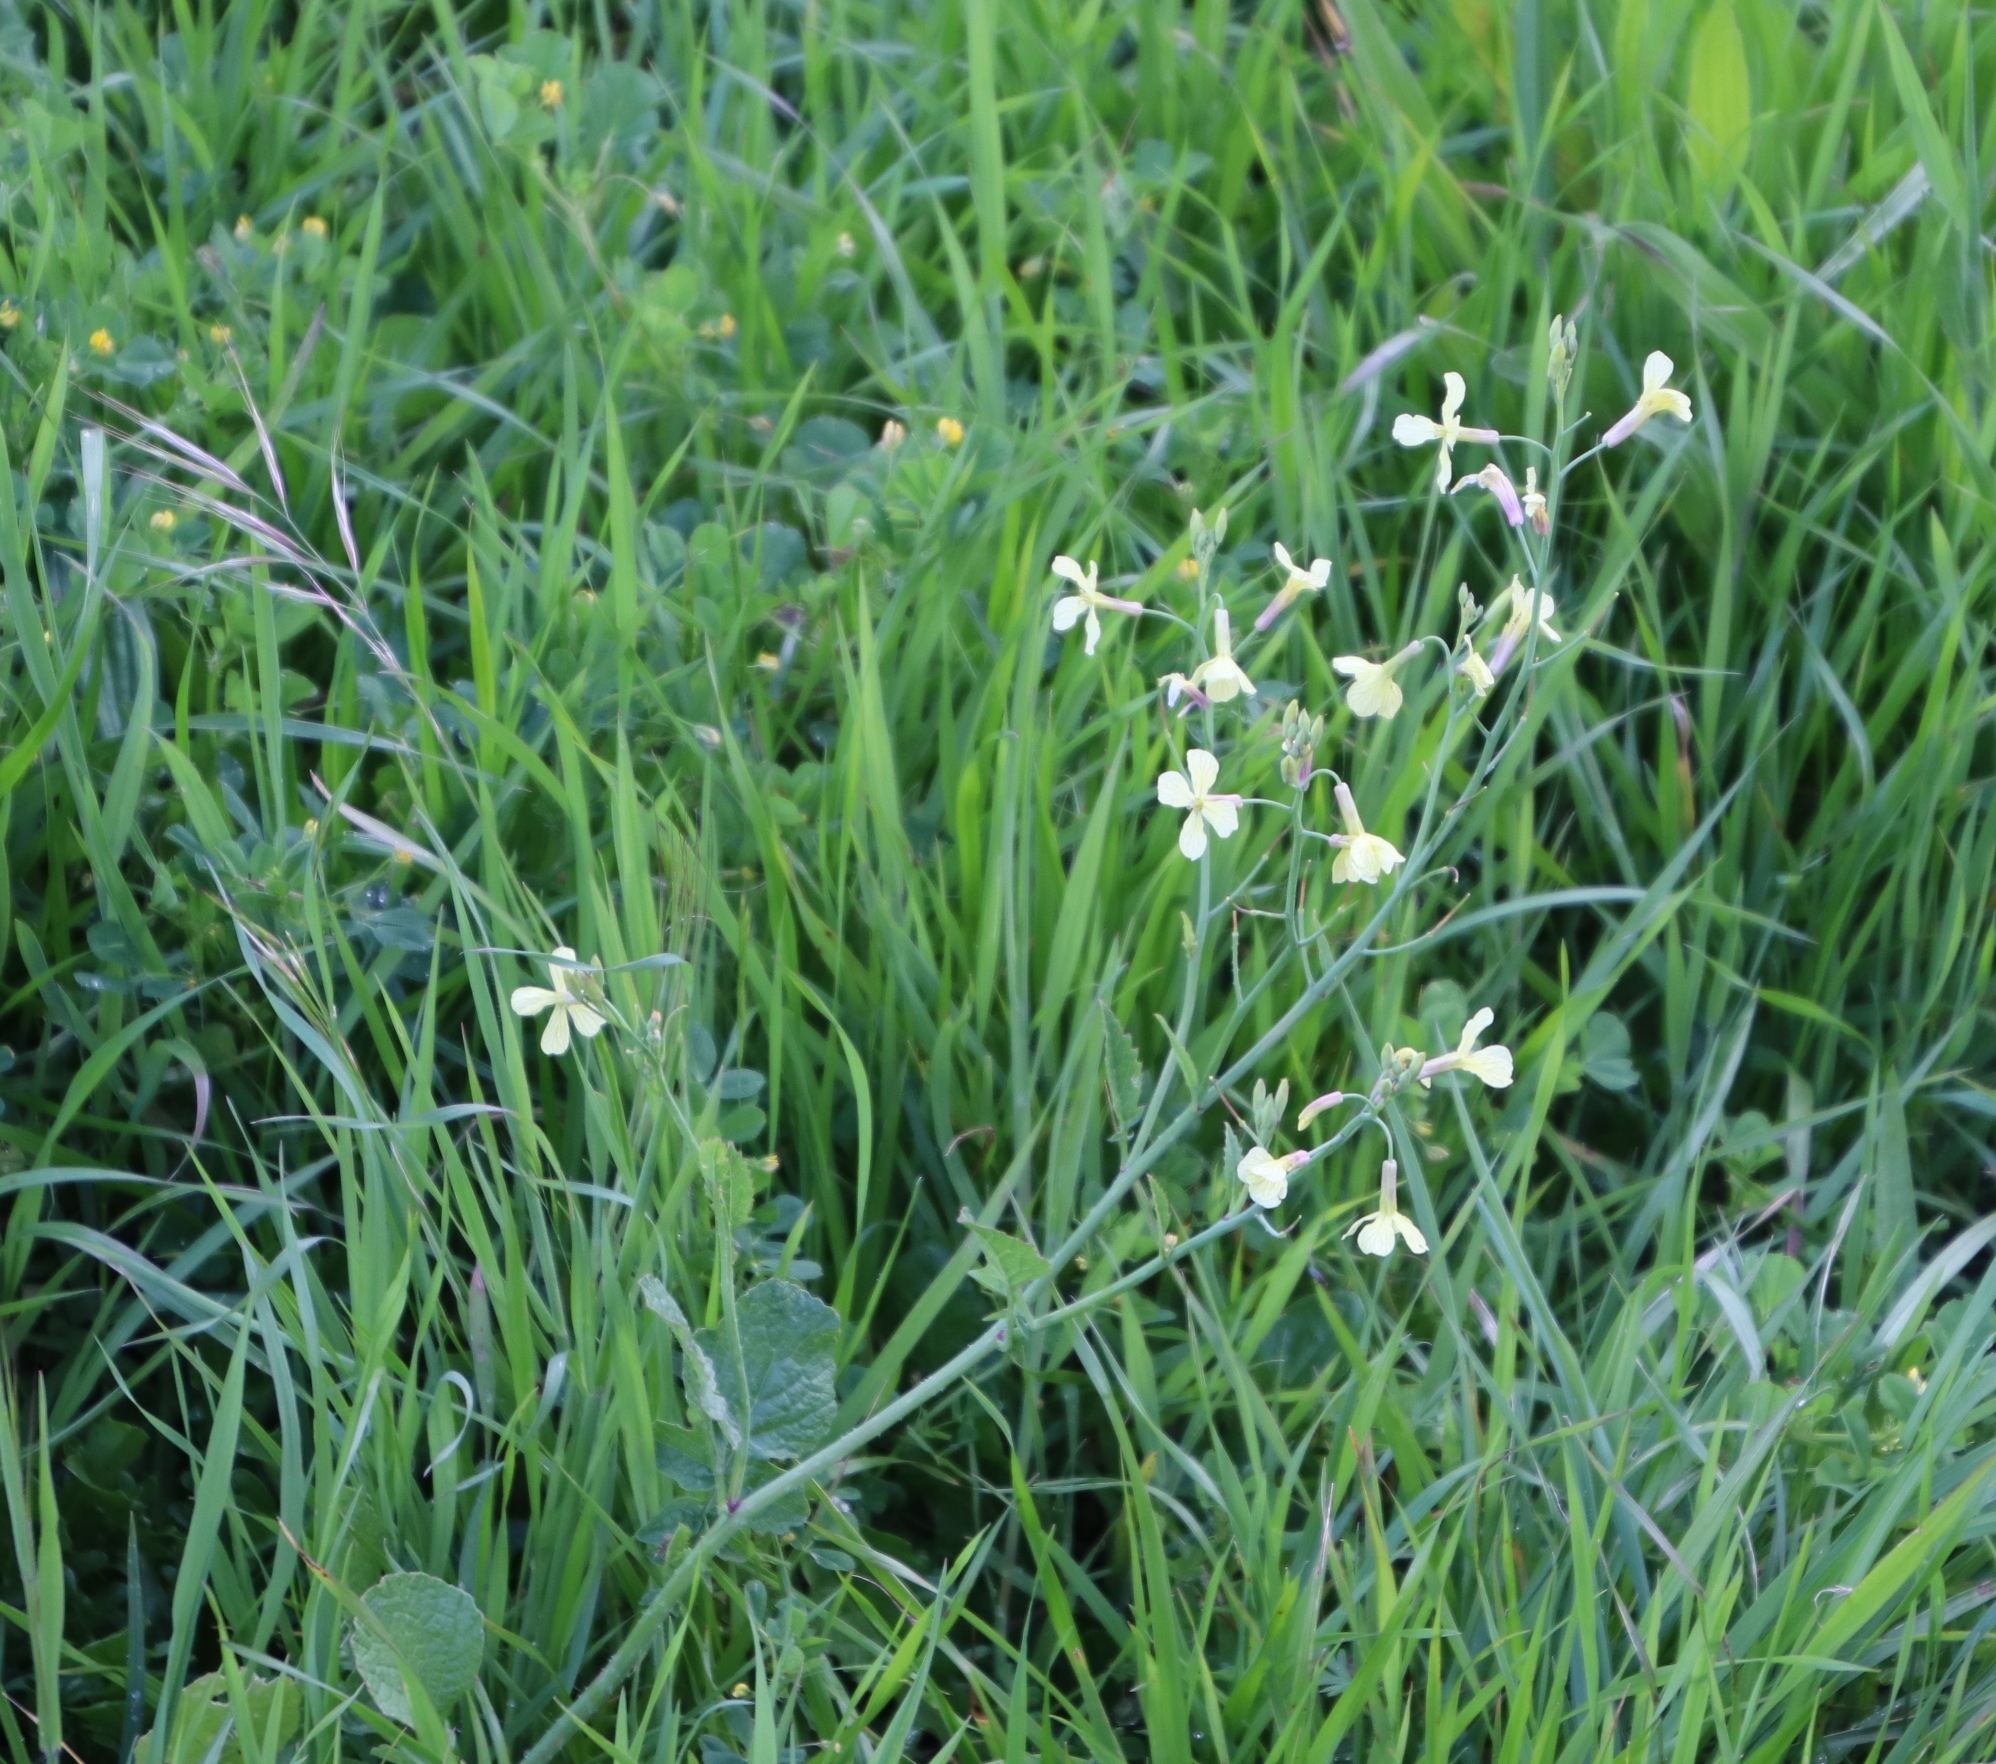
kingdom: Plantae
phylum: Tracheophyta
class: Magnoliopsida
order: Brassicales
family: Brassicaceae
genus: Raphanus
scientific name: Raphanus raphanistrum
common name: Wild radish
